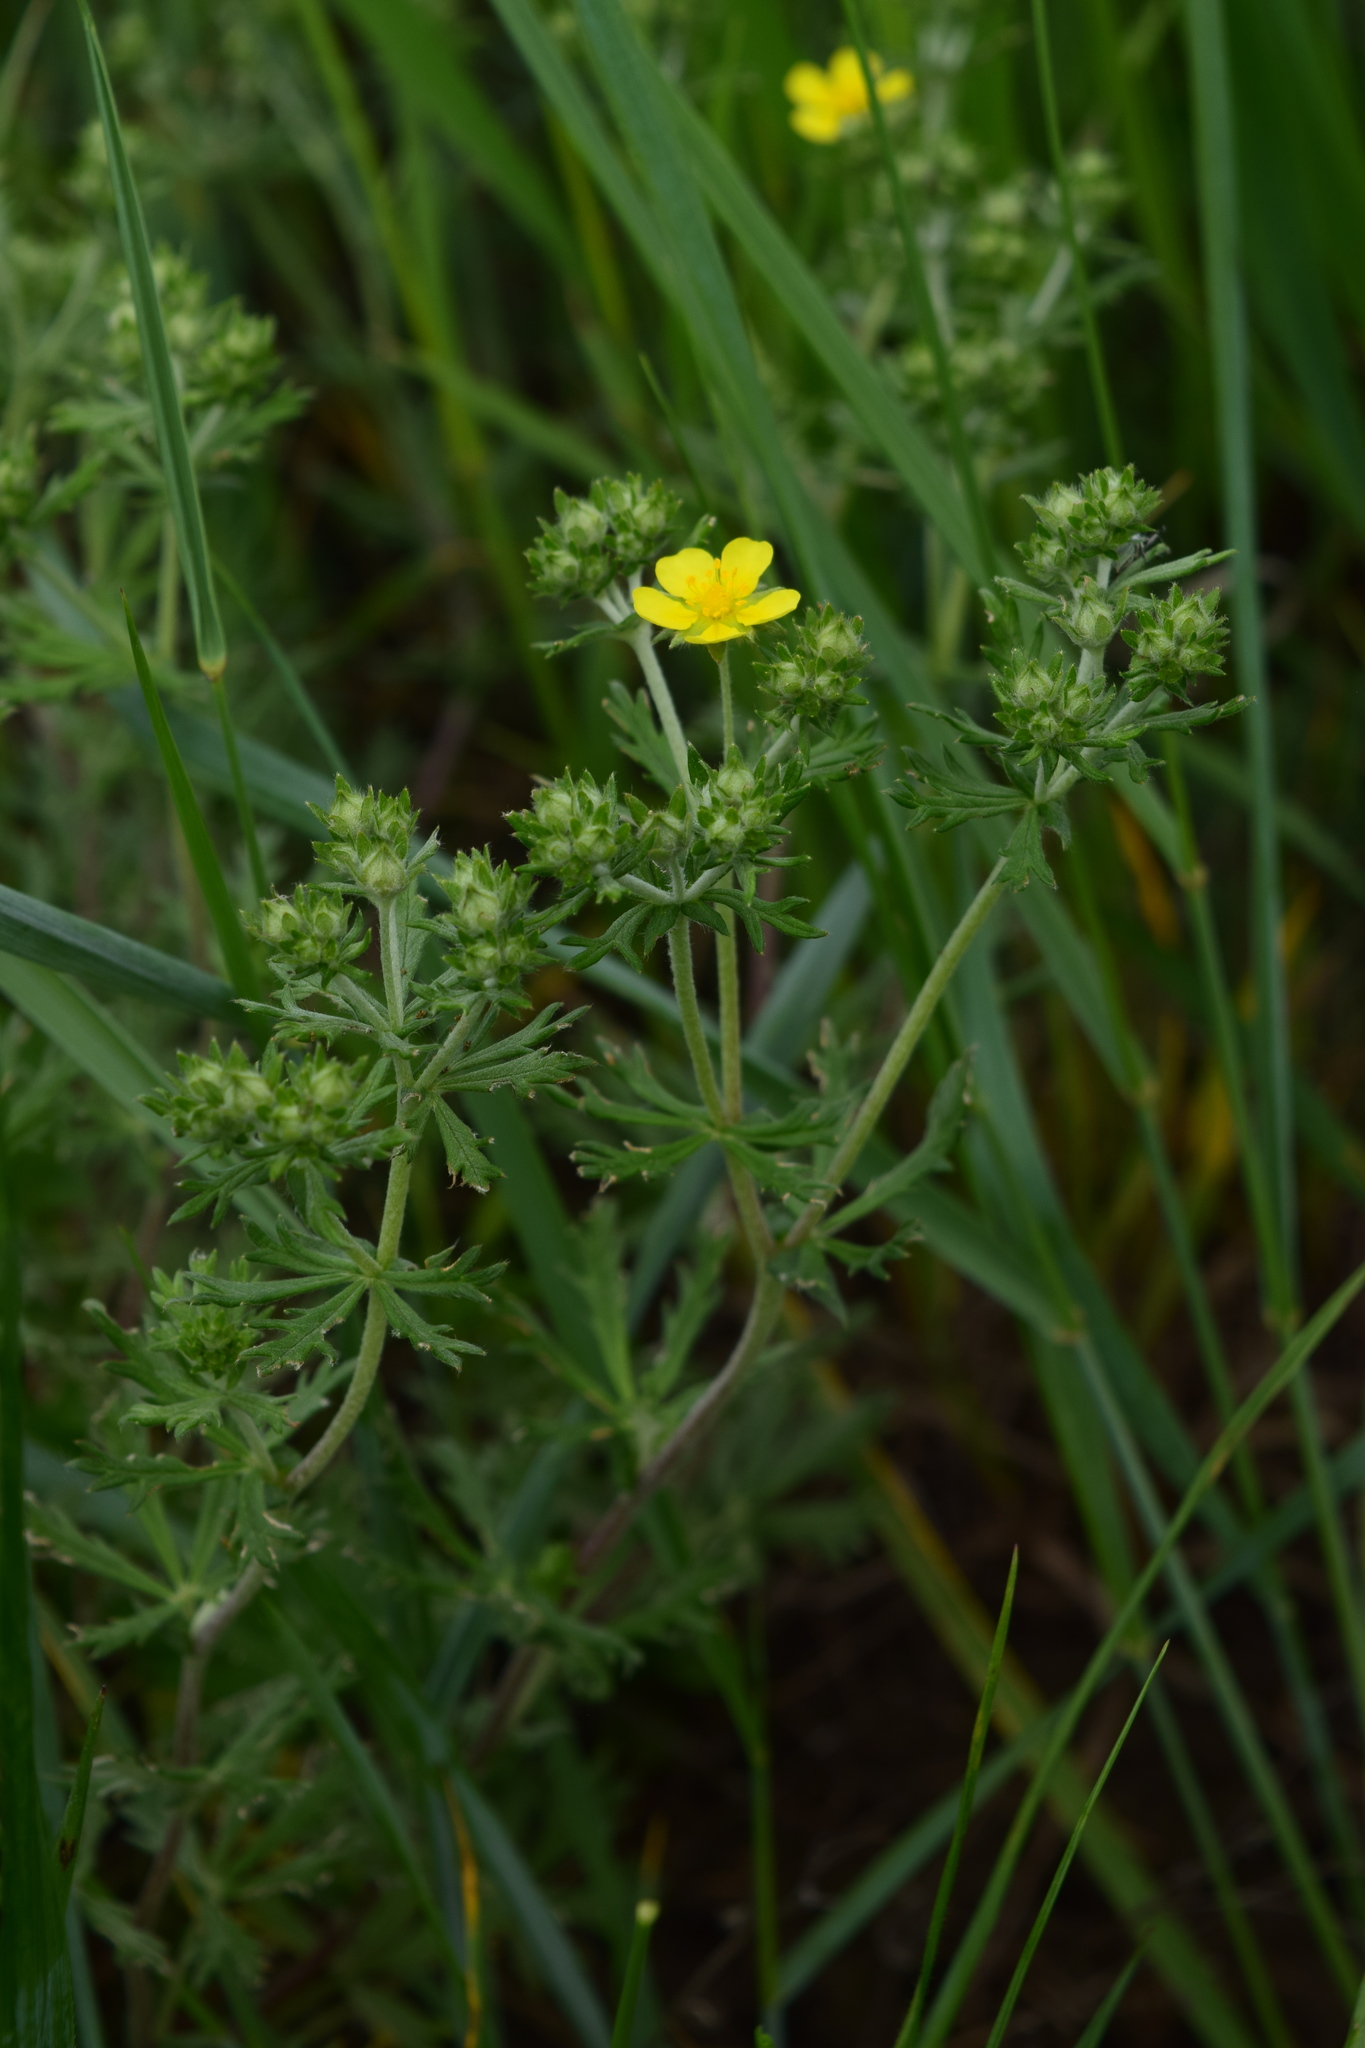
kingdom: Plantae
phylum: Tracheophyta
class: Magnoliopsida
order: Rosales
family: Rosaceae
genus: Potentilla
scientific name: Potentilla argentea
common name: Hoary cinquefoil
